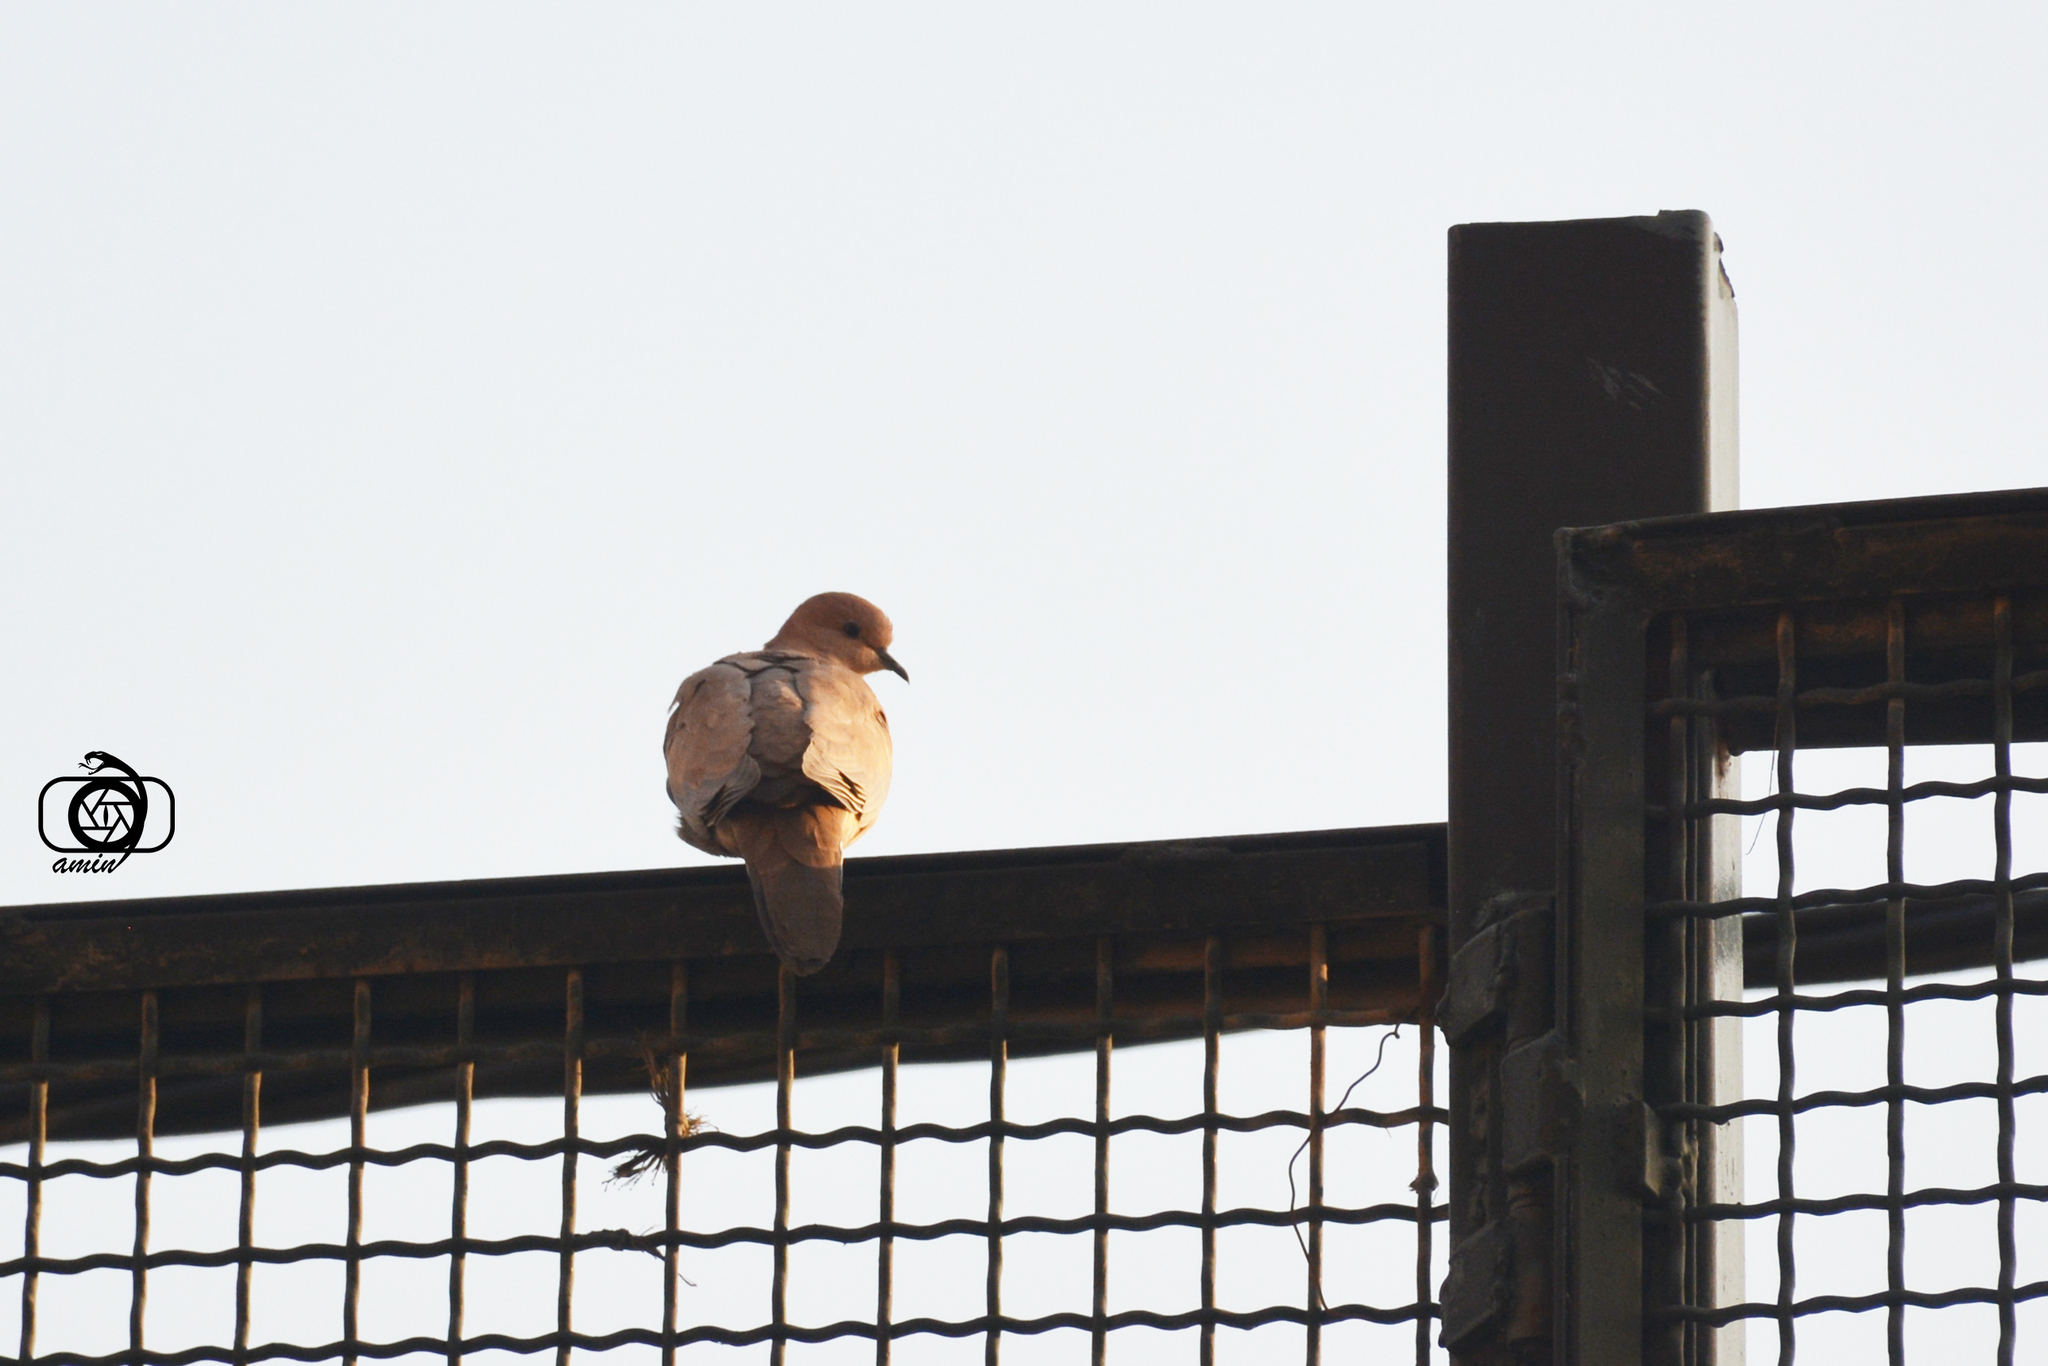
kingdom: Animalia
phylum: Chordata
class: Aves
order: Columbiformes
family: Columbidae
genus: Spilopelia
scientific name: Spilopelia senegalensis
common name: Laughing dove
